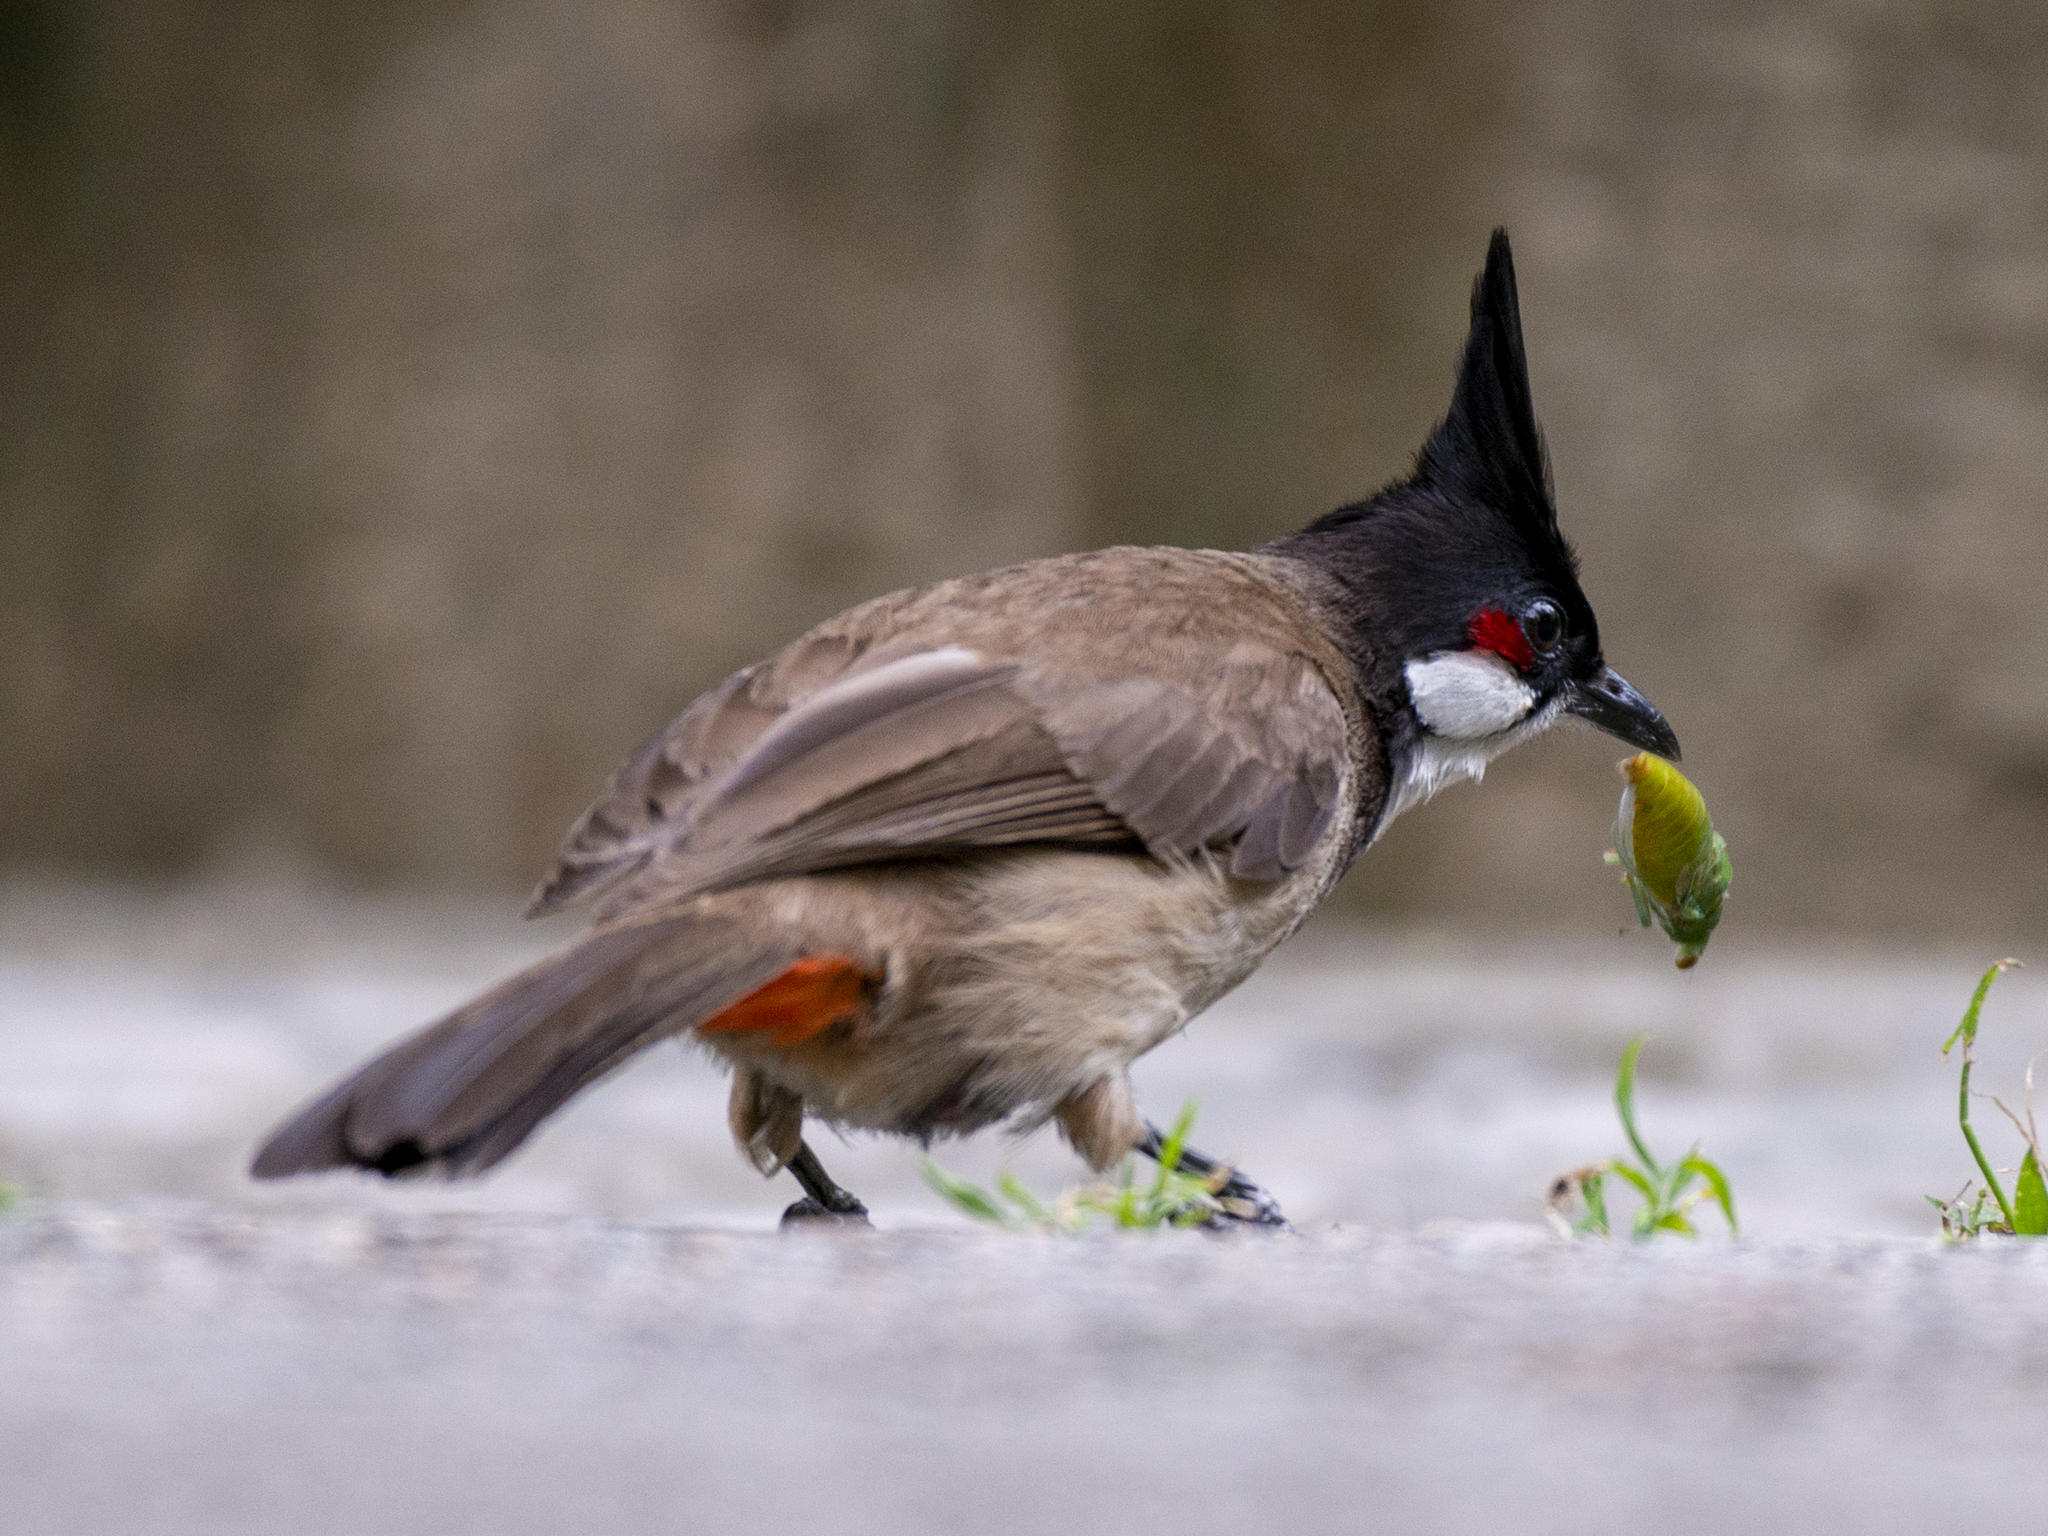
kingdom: Animalia
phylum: Chordata
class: Aves
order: Passeriformes
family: Pycnonotidae
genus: Pycnonotus
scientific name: Pycnonotus jocosus
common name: Red-whiskered bulbul
